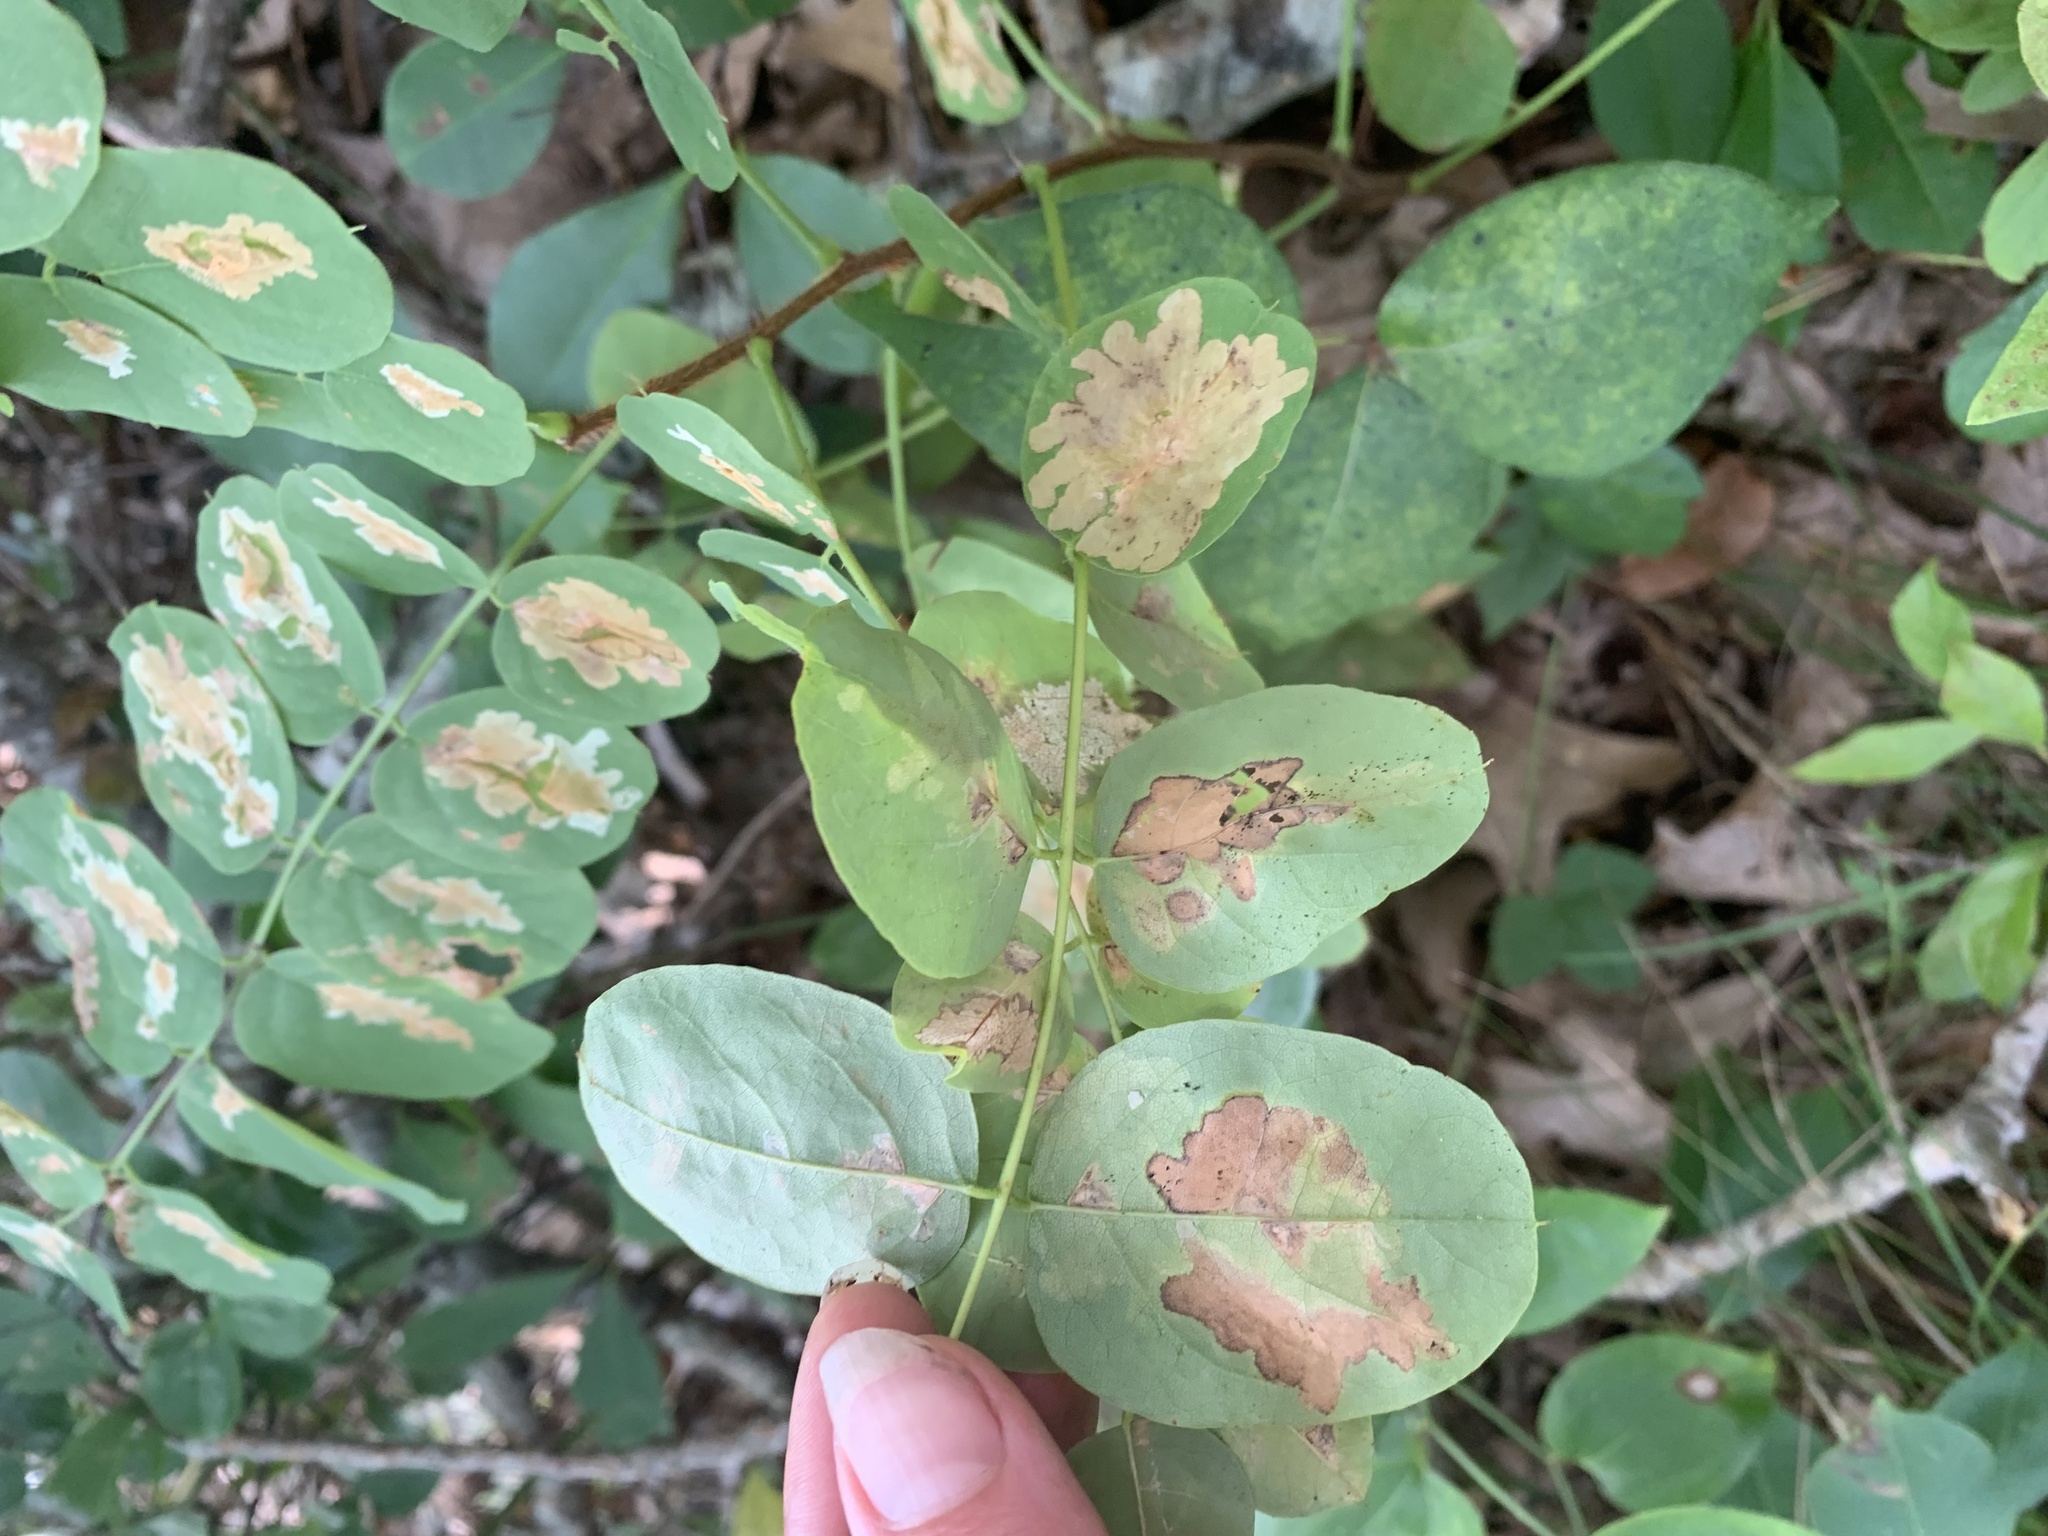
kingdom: Animalia
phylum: Arthropoda
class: Insecta
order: Lepidoptera
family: Gracillariidae
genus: Parectopa
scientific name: Parectopa robiniella
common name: Locust digitate leafminer
